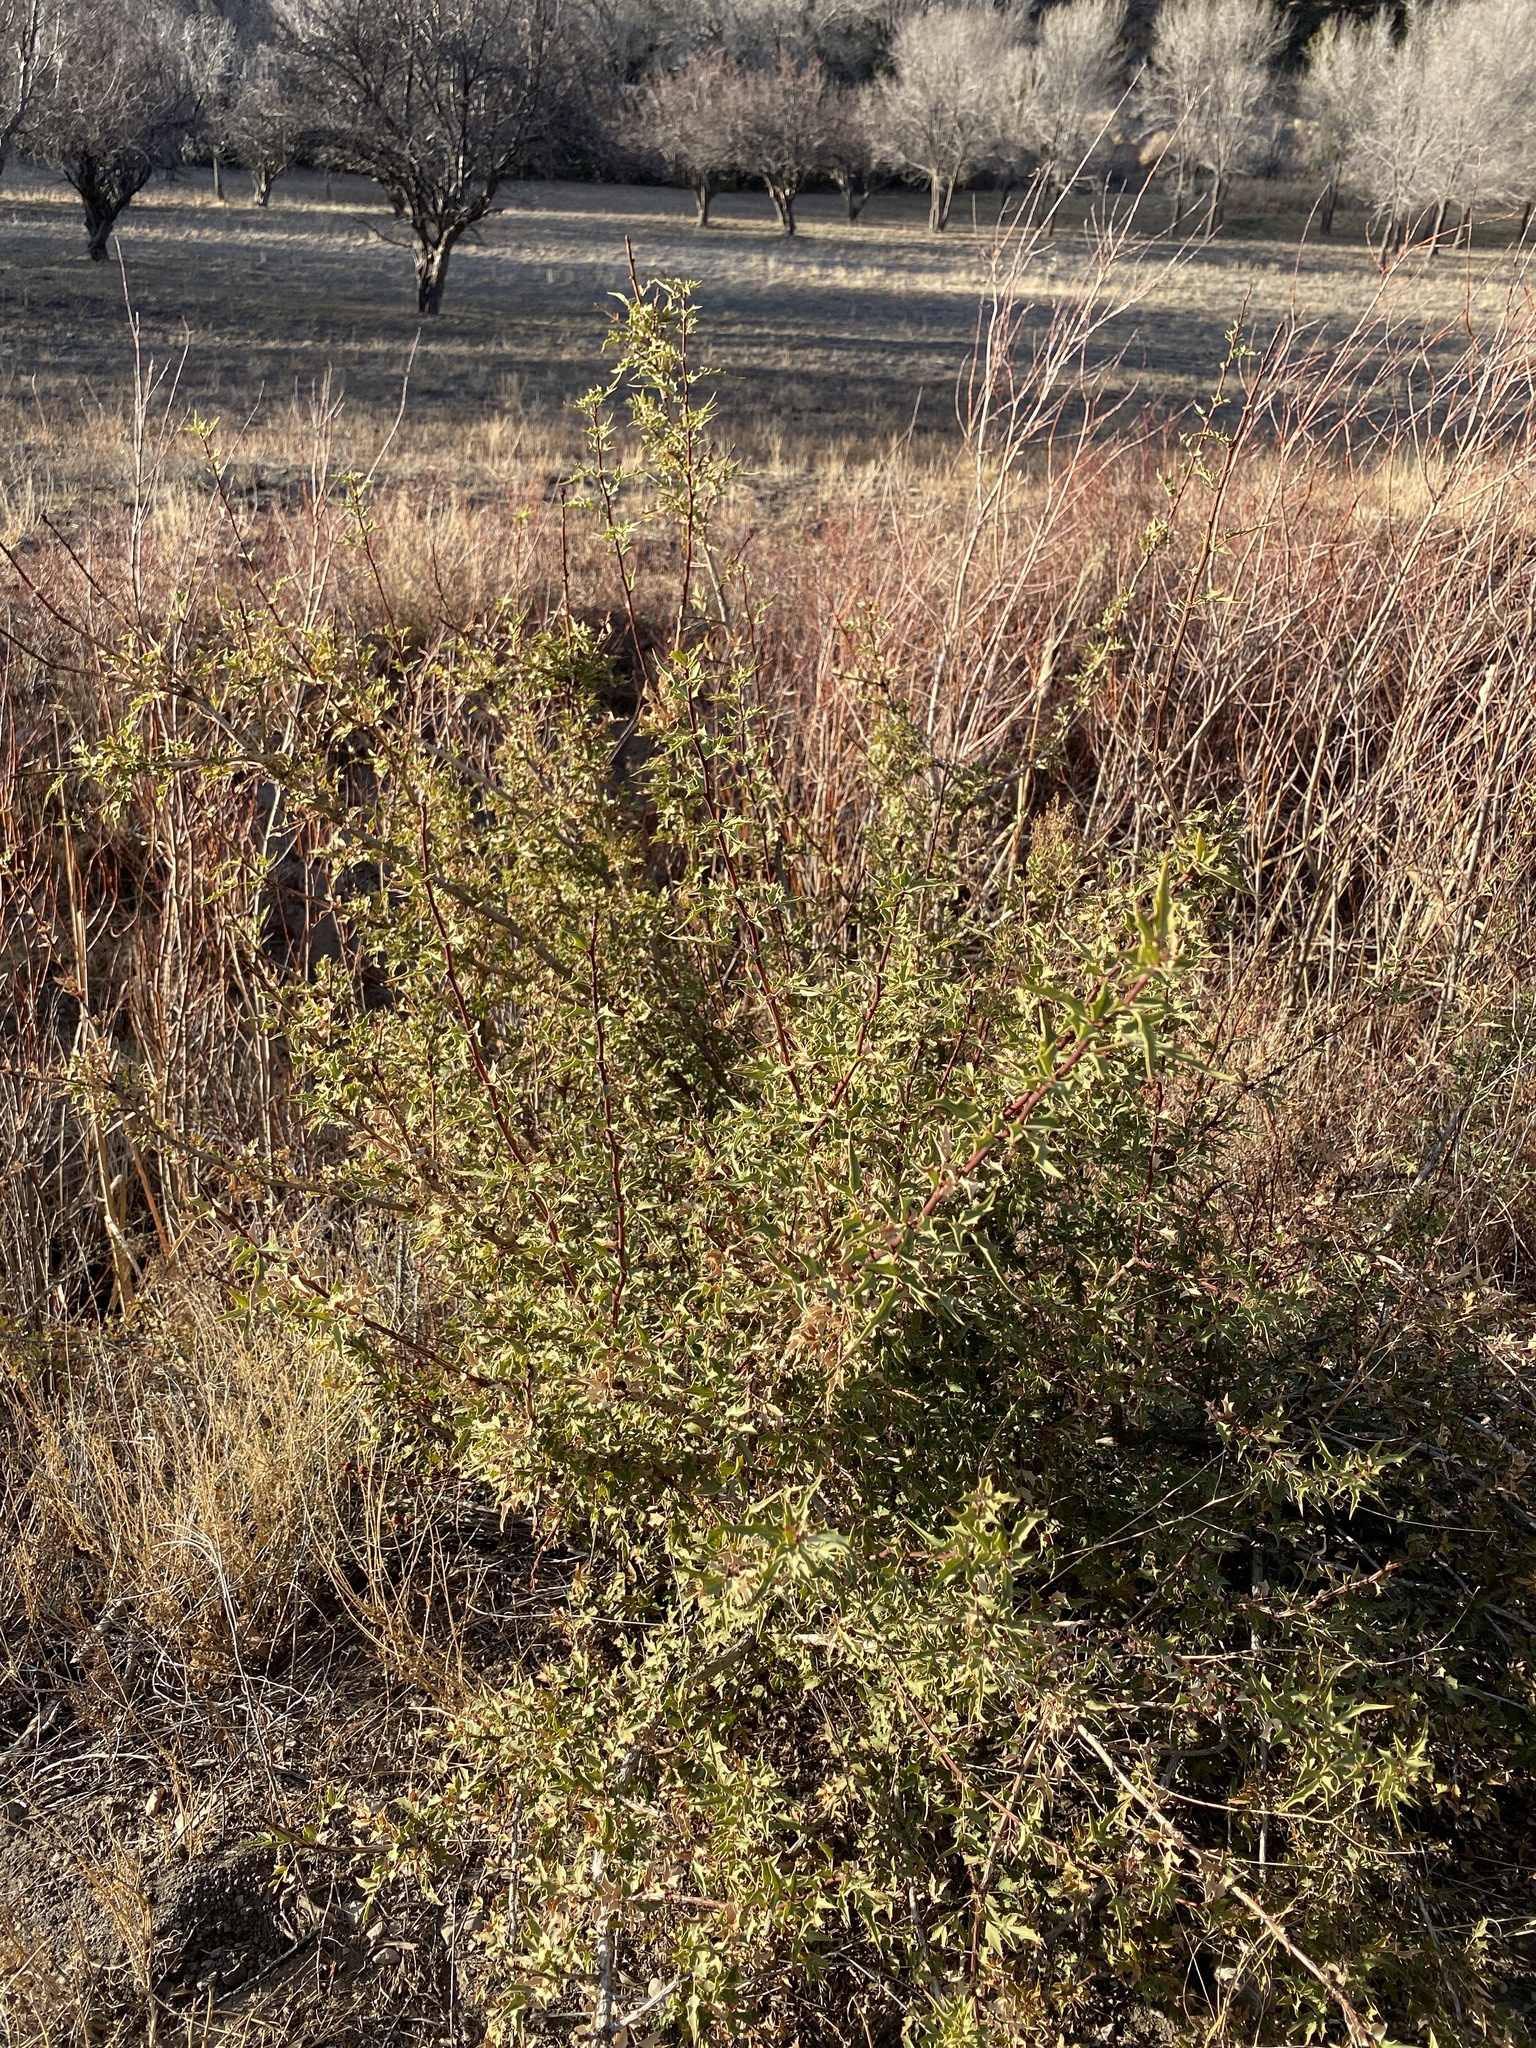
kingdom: Plantae
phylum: Tracheophyta
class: Magnoliopsida
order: Ranunculales
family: Berberidaceae
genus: Alloberberis
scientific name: Alloberberis haematocarpa
